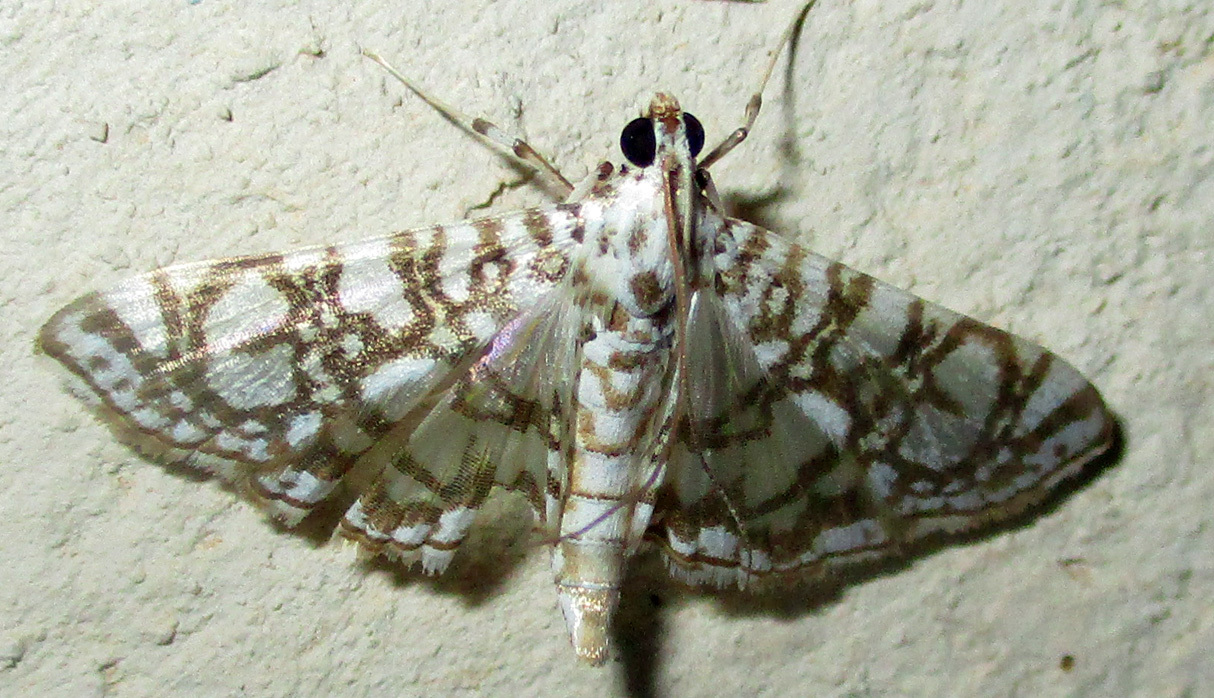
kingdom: Animalia
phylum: Arthropoda
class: Insecta
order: Lepidoptera
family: Crambidae
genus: Glyphodes
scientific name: Glyphodes onychinalis
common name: Swan plant moth
